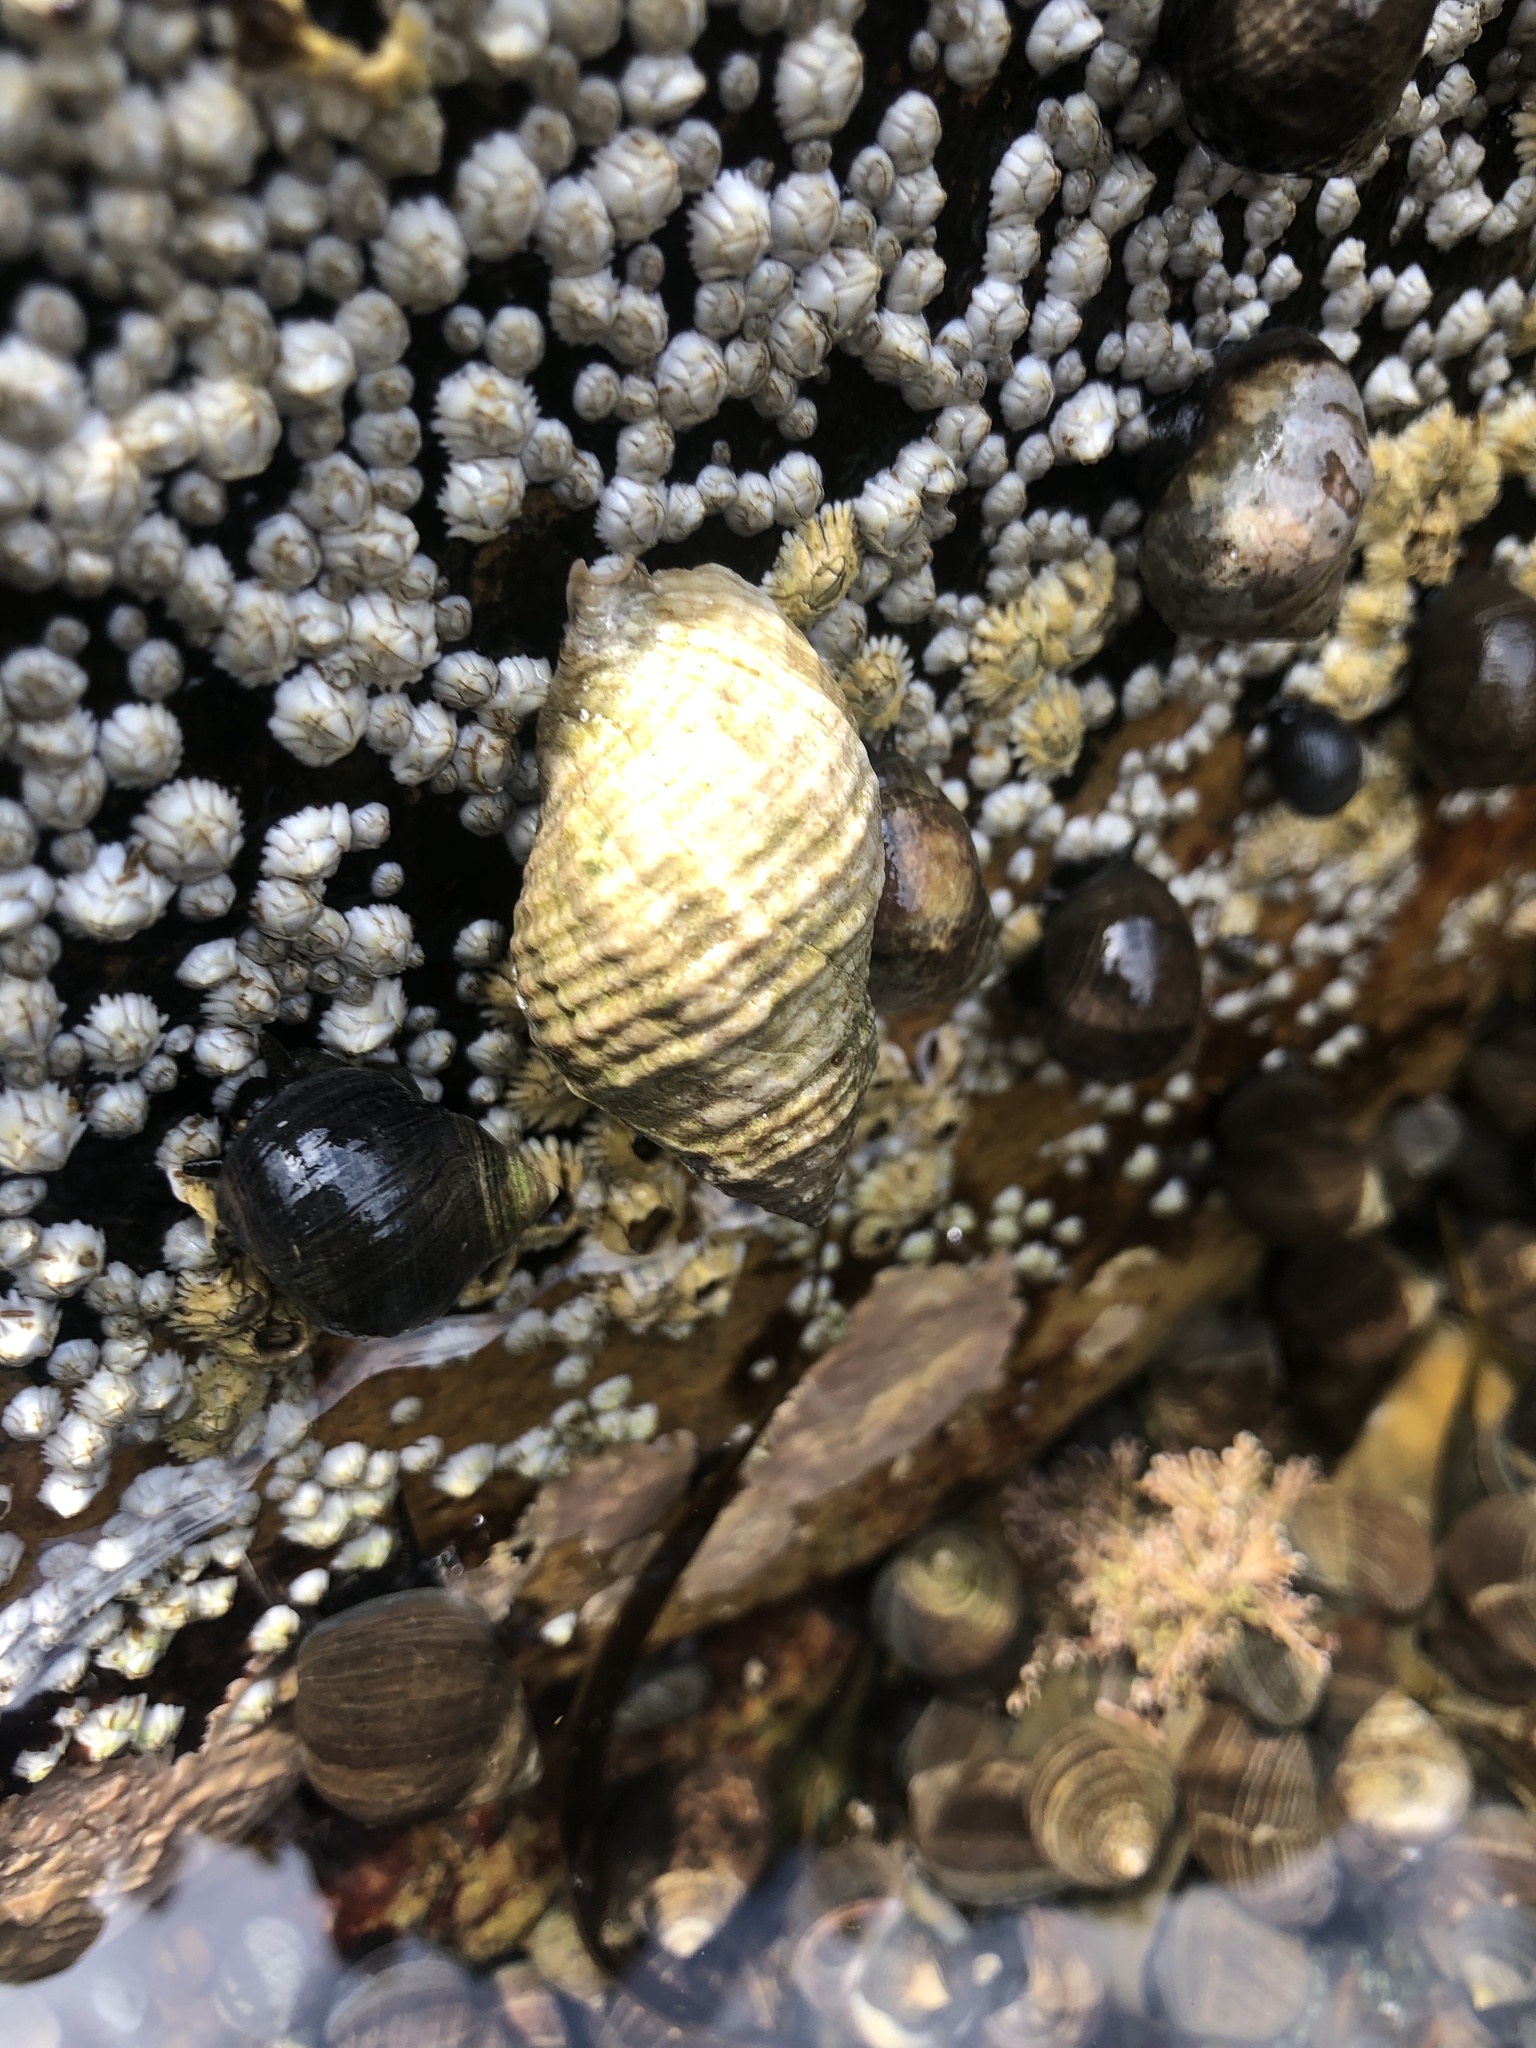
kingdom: Animalia
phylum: Mollusca
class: Gastropoda
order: Neogastropoda
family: Muricidae
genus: Nucella
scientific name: Nucella lapillus
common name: Dog whelk
